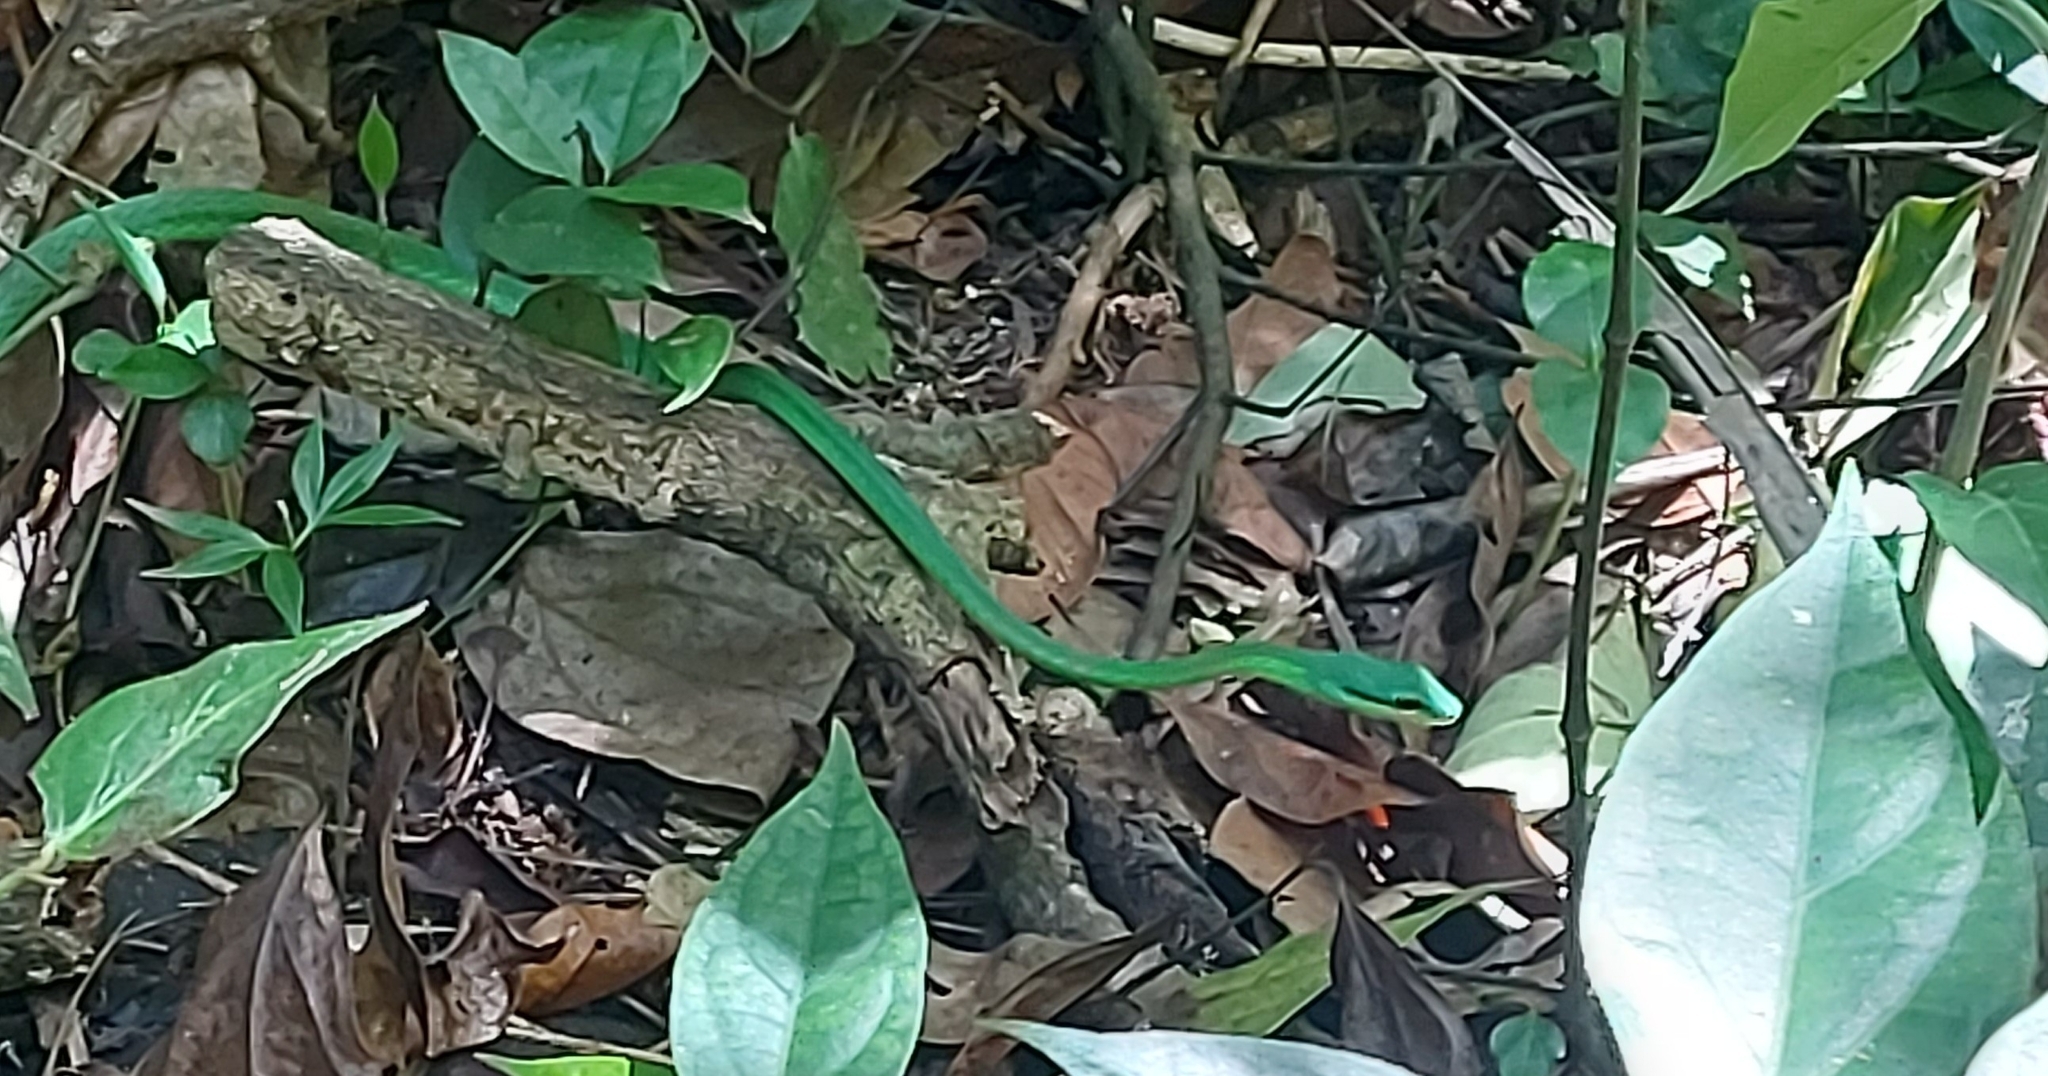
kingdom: Animalia
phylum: Chordata
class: Squamata
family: Colubridae
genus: Leptophis
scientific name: Leptophis ahaetulla
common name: Parrot snake
